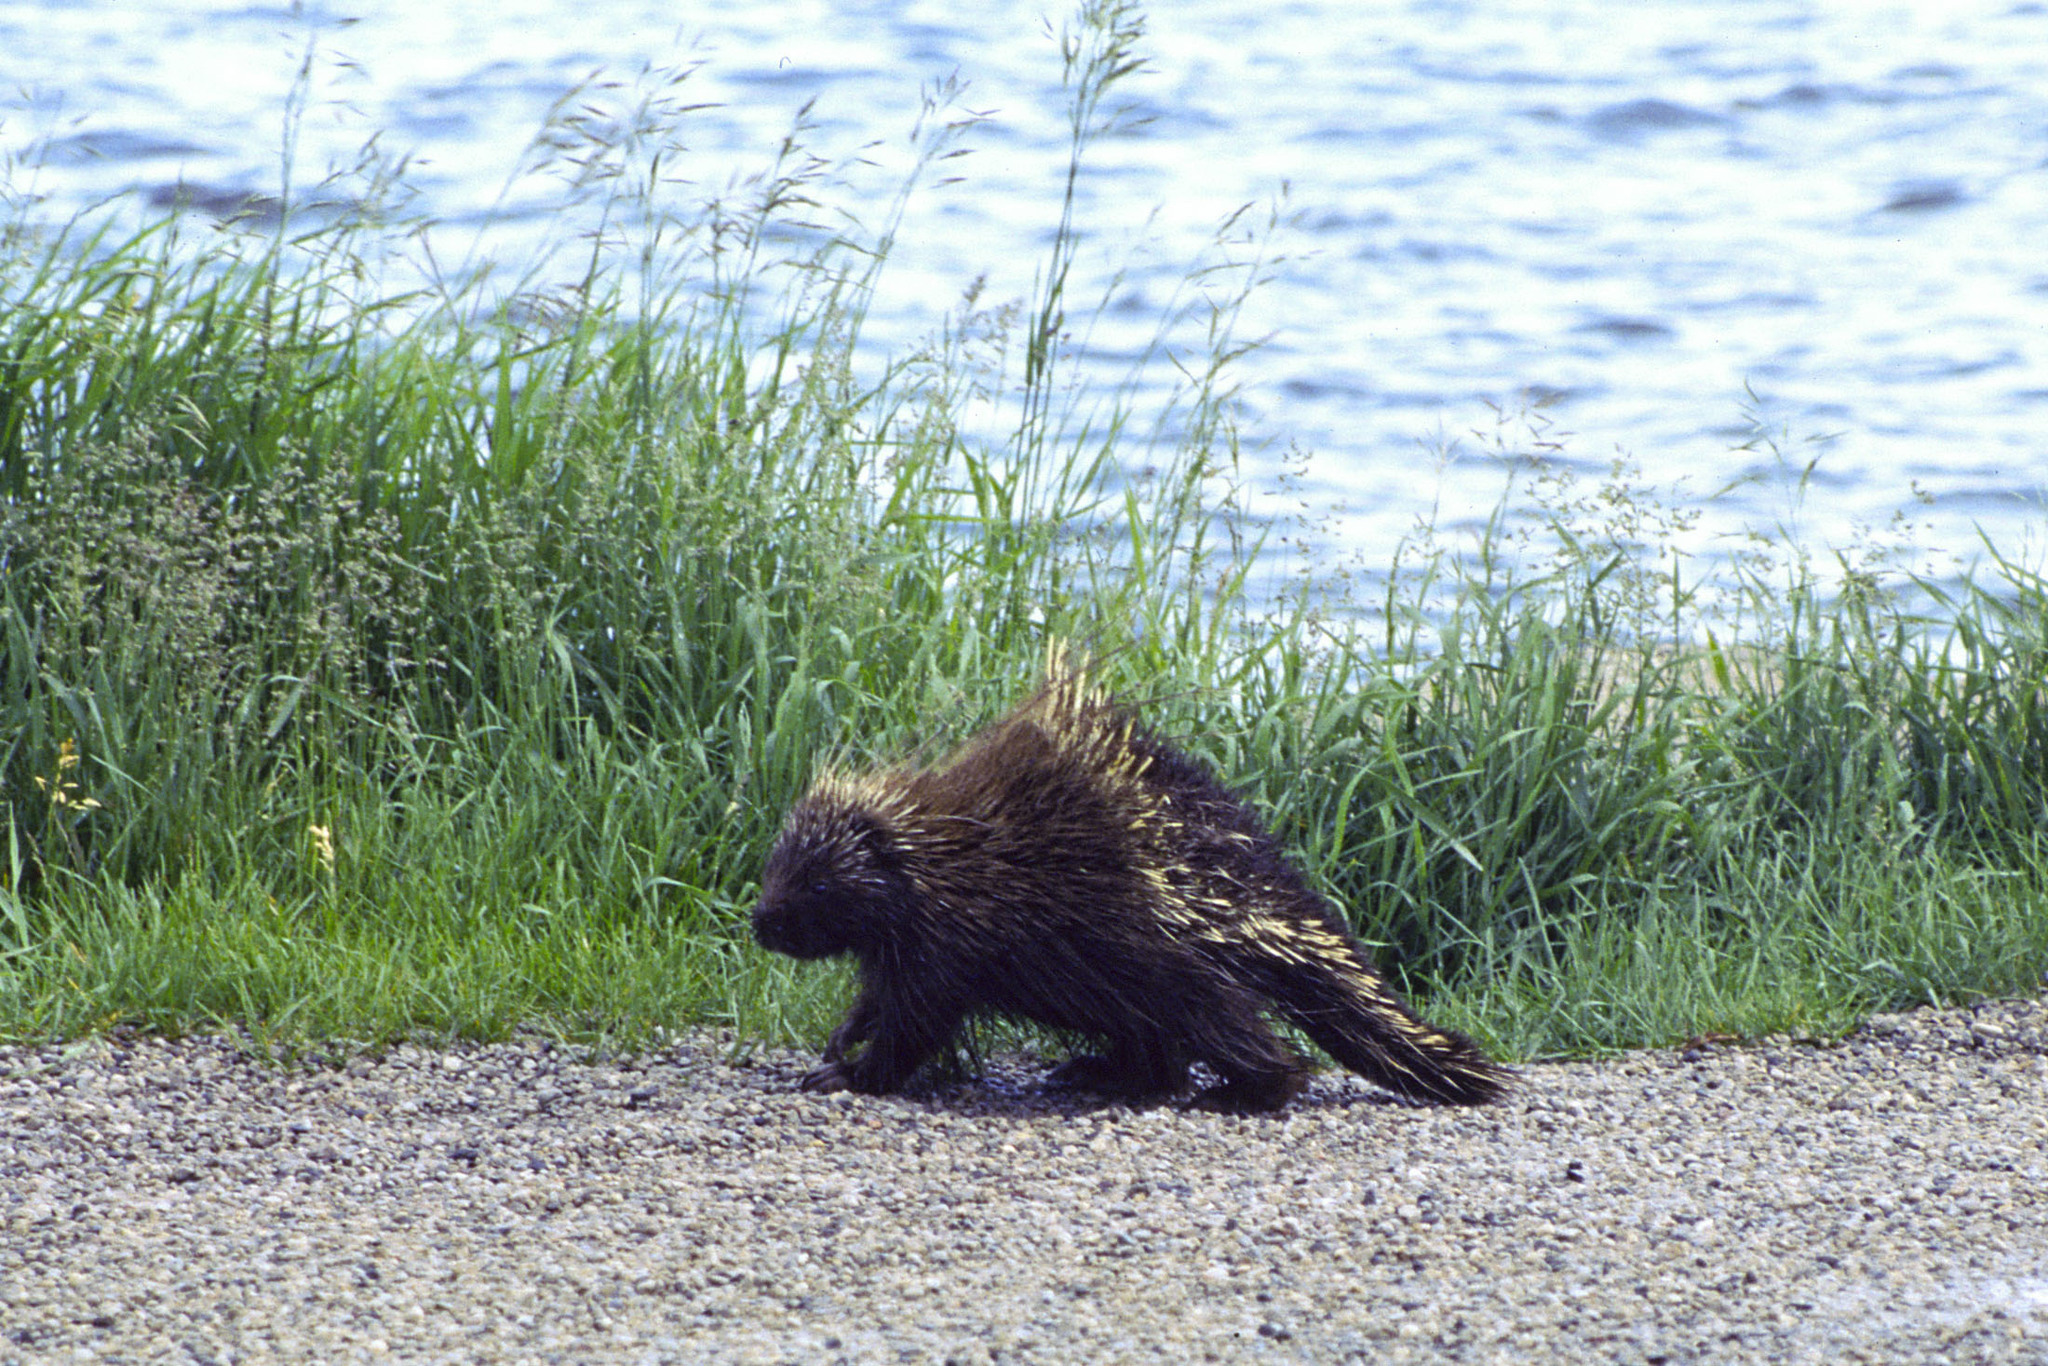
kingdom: Animalia
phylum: Chordata
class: Mammalia
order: Rodentia
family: Erethizontidae
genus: Erethizon
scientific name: Erethizon dorsatus
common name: North american porcupine
